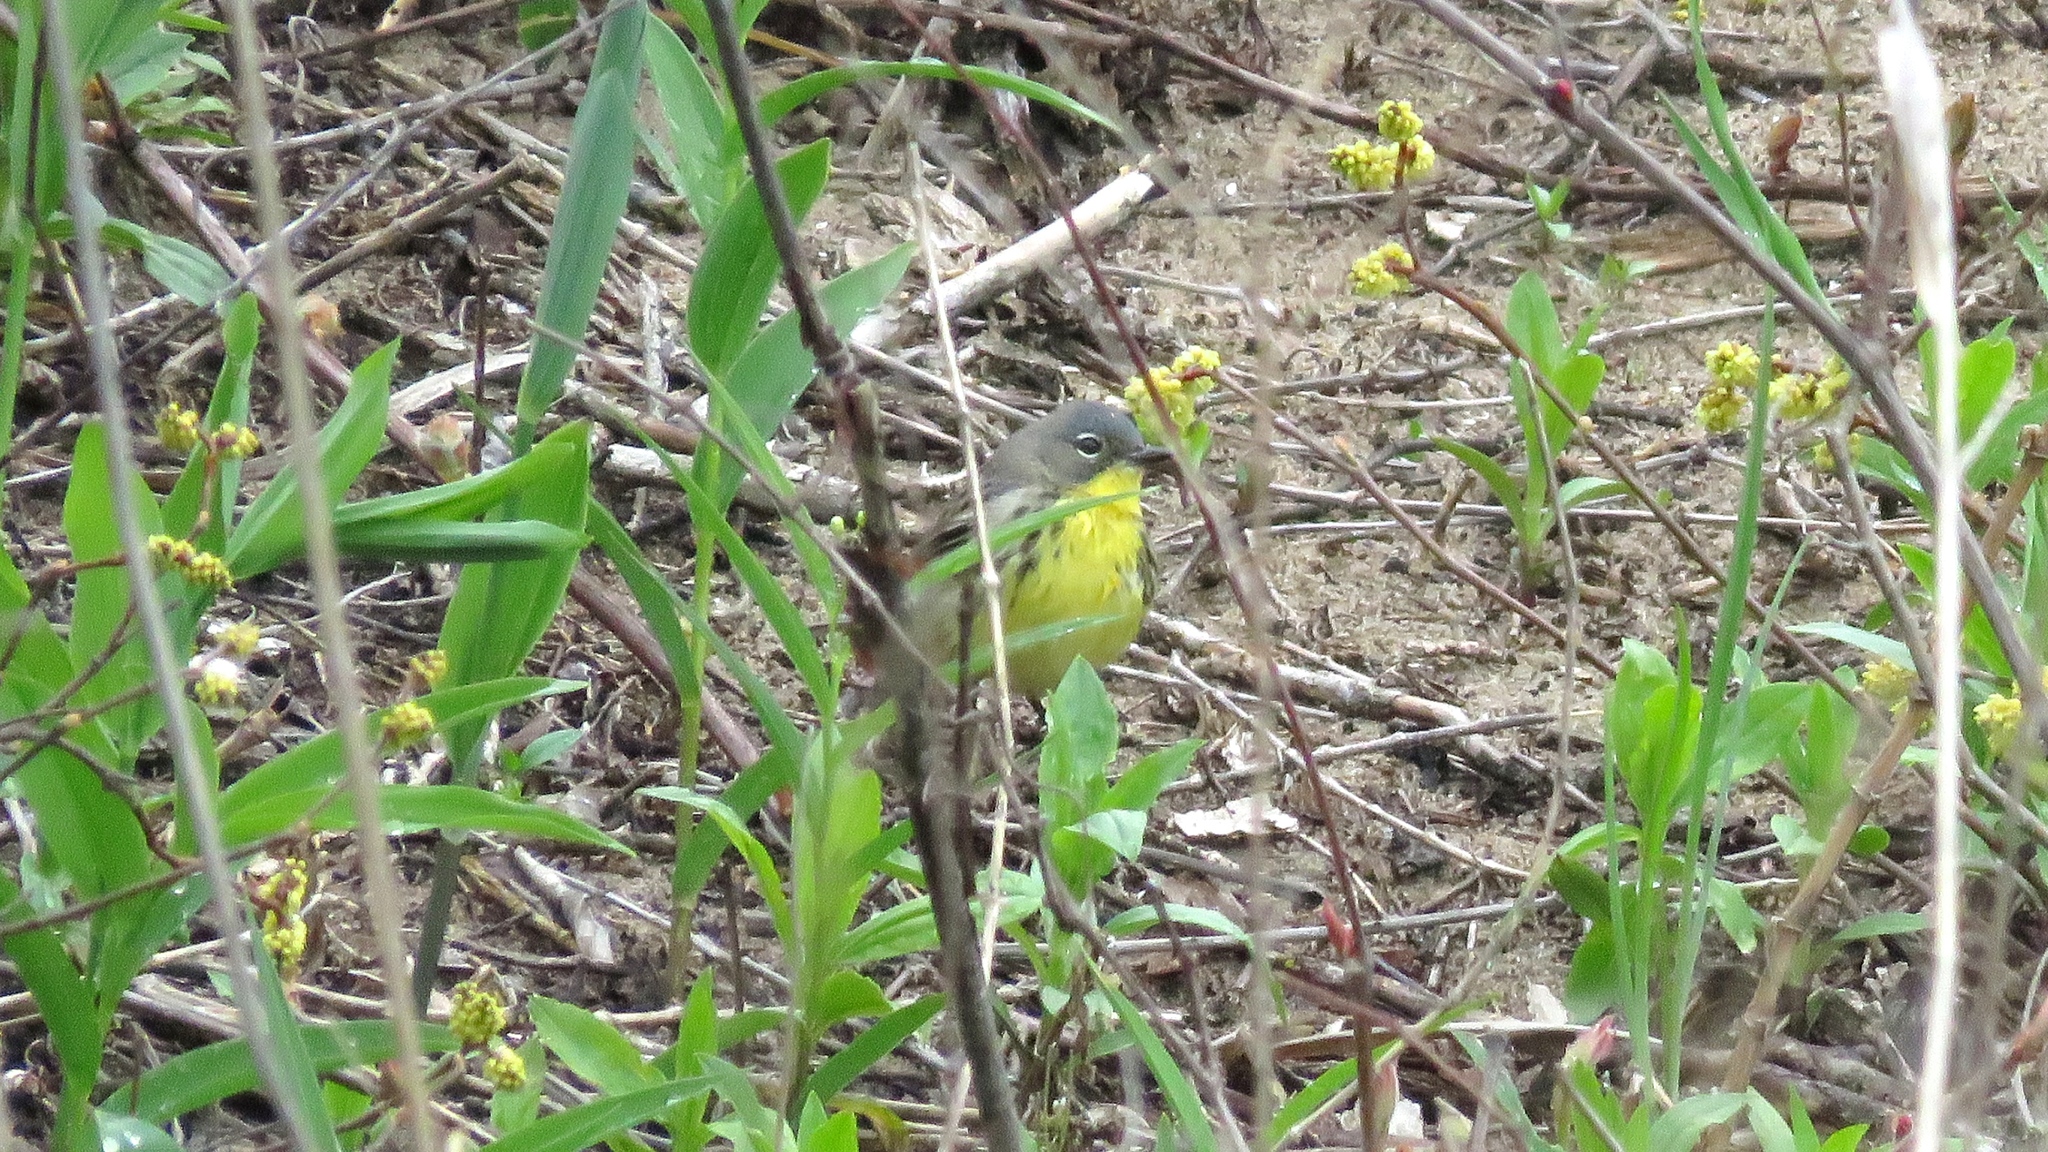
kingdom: Animalia
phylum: Chordata
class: Aves
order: Passeriformes
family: Parulidae
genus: Setophaga
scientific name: Setophaga kirtlandii
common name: Kirtland's warbler
